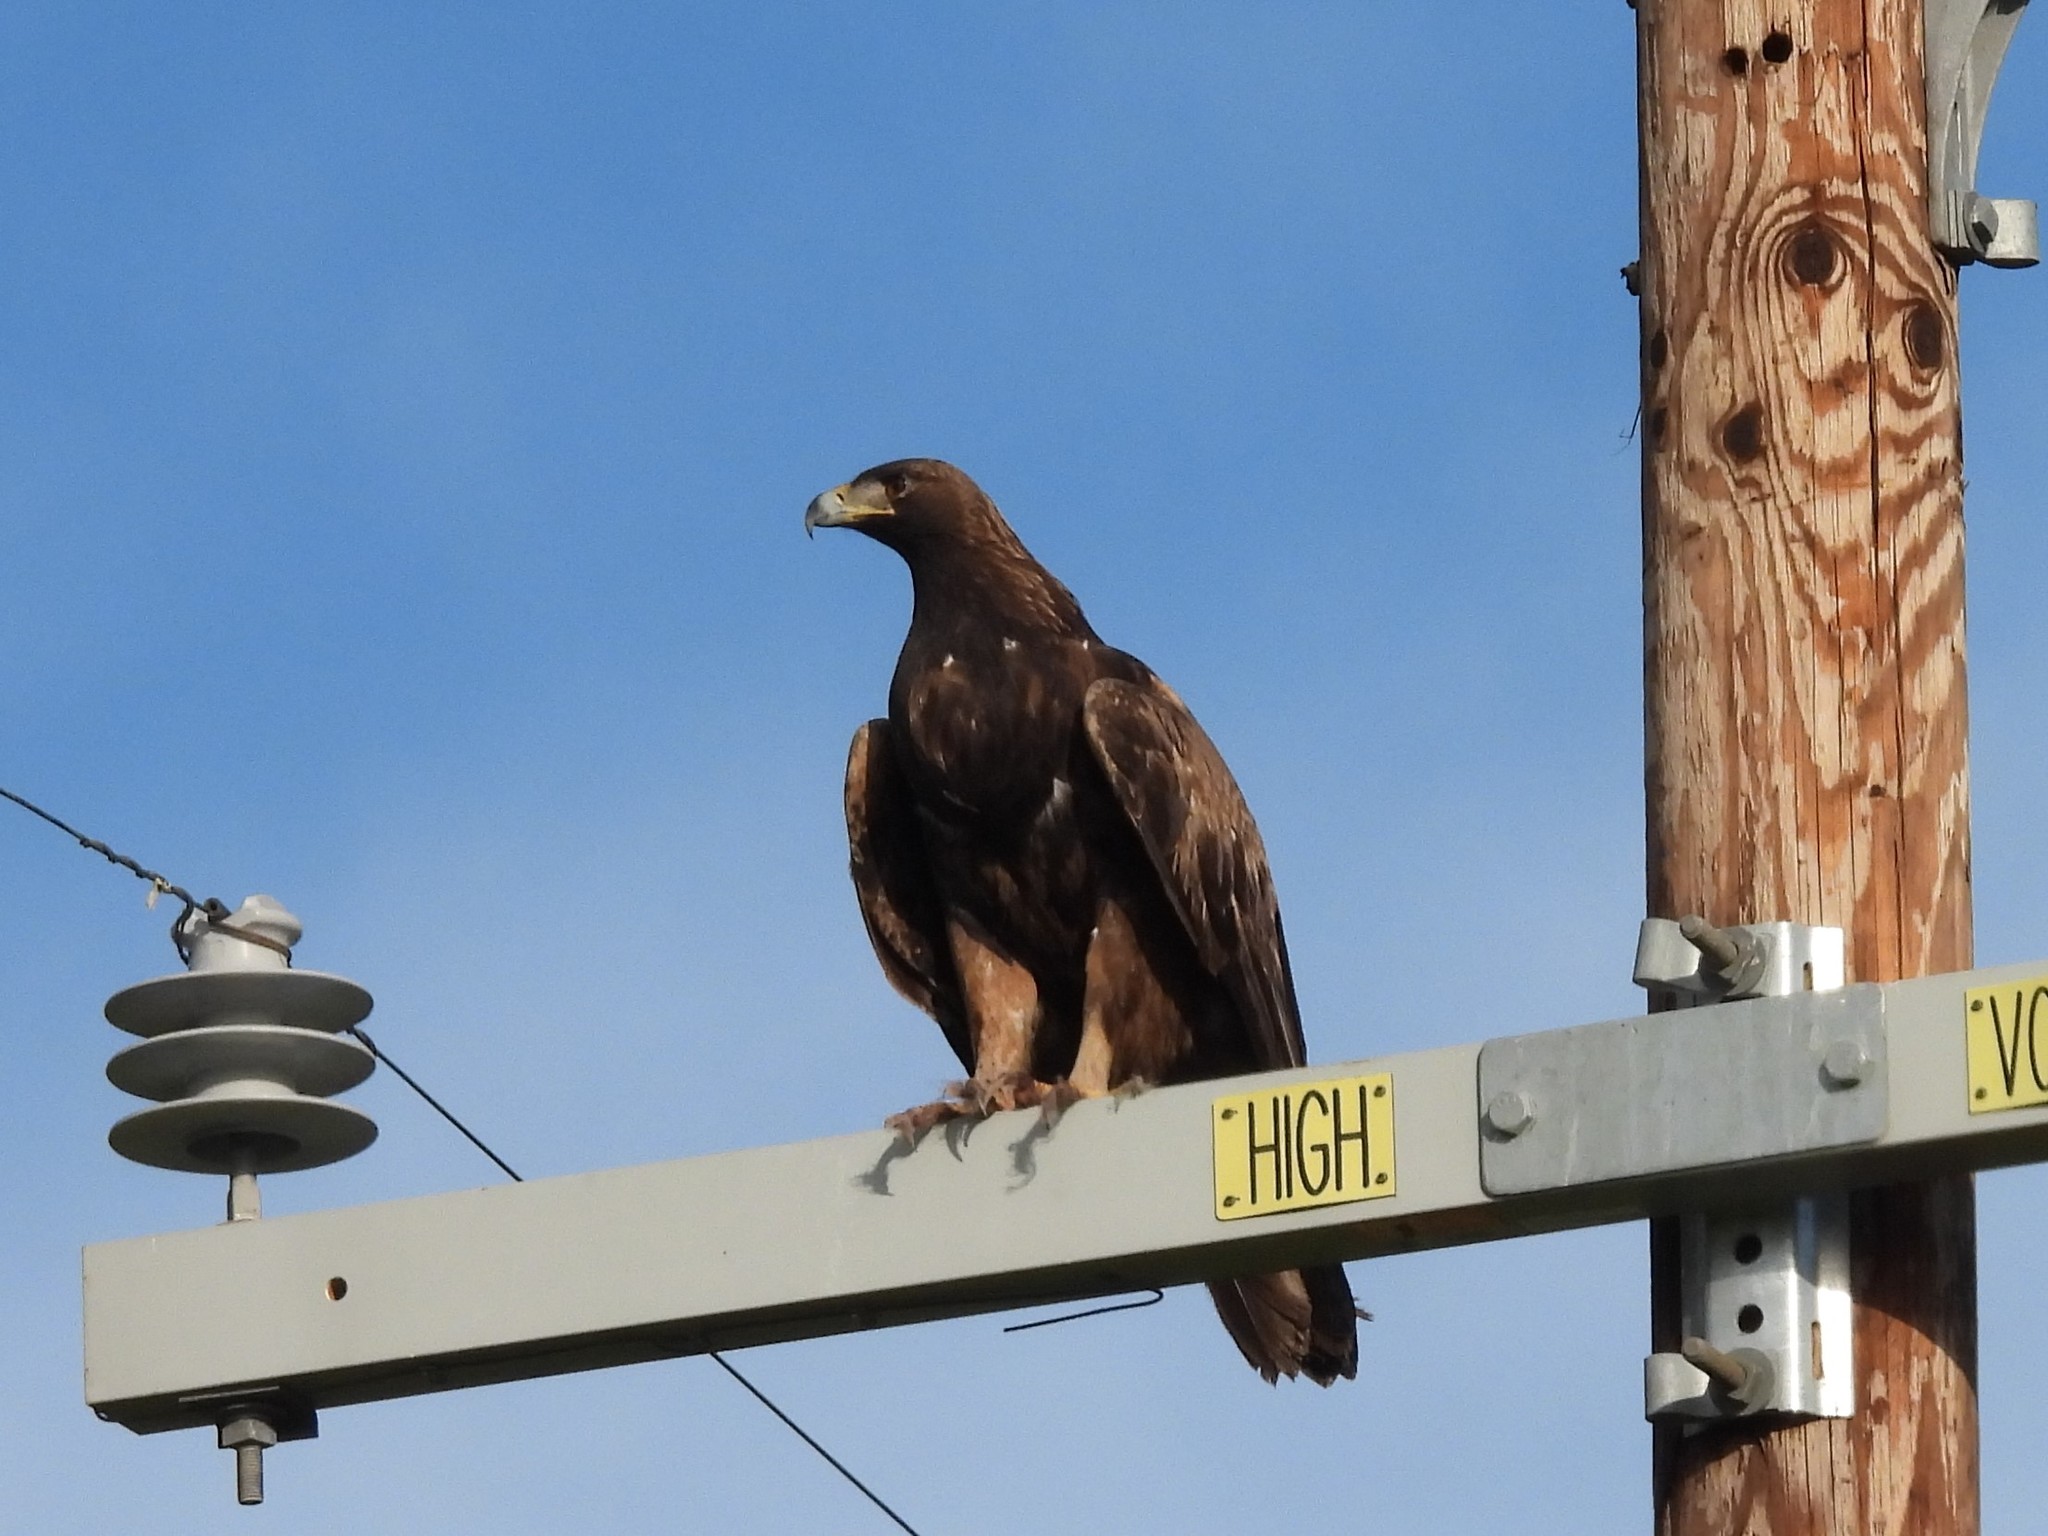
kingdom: Animalia
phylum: Chordata
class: Aves
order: Accipitriformes
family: Accipitridae
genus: Aquila
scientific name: Aquila chrysaetos
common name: Golden eagle
